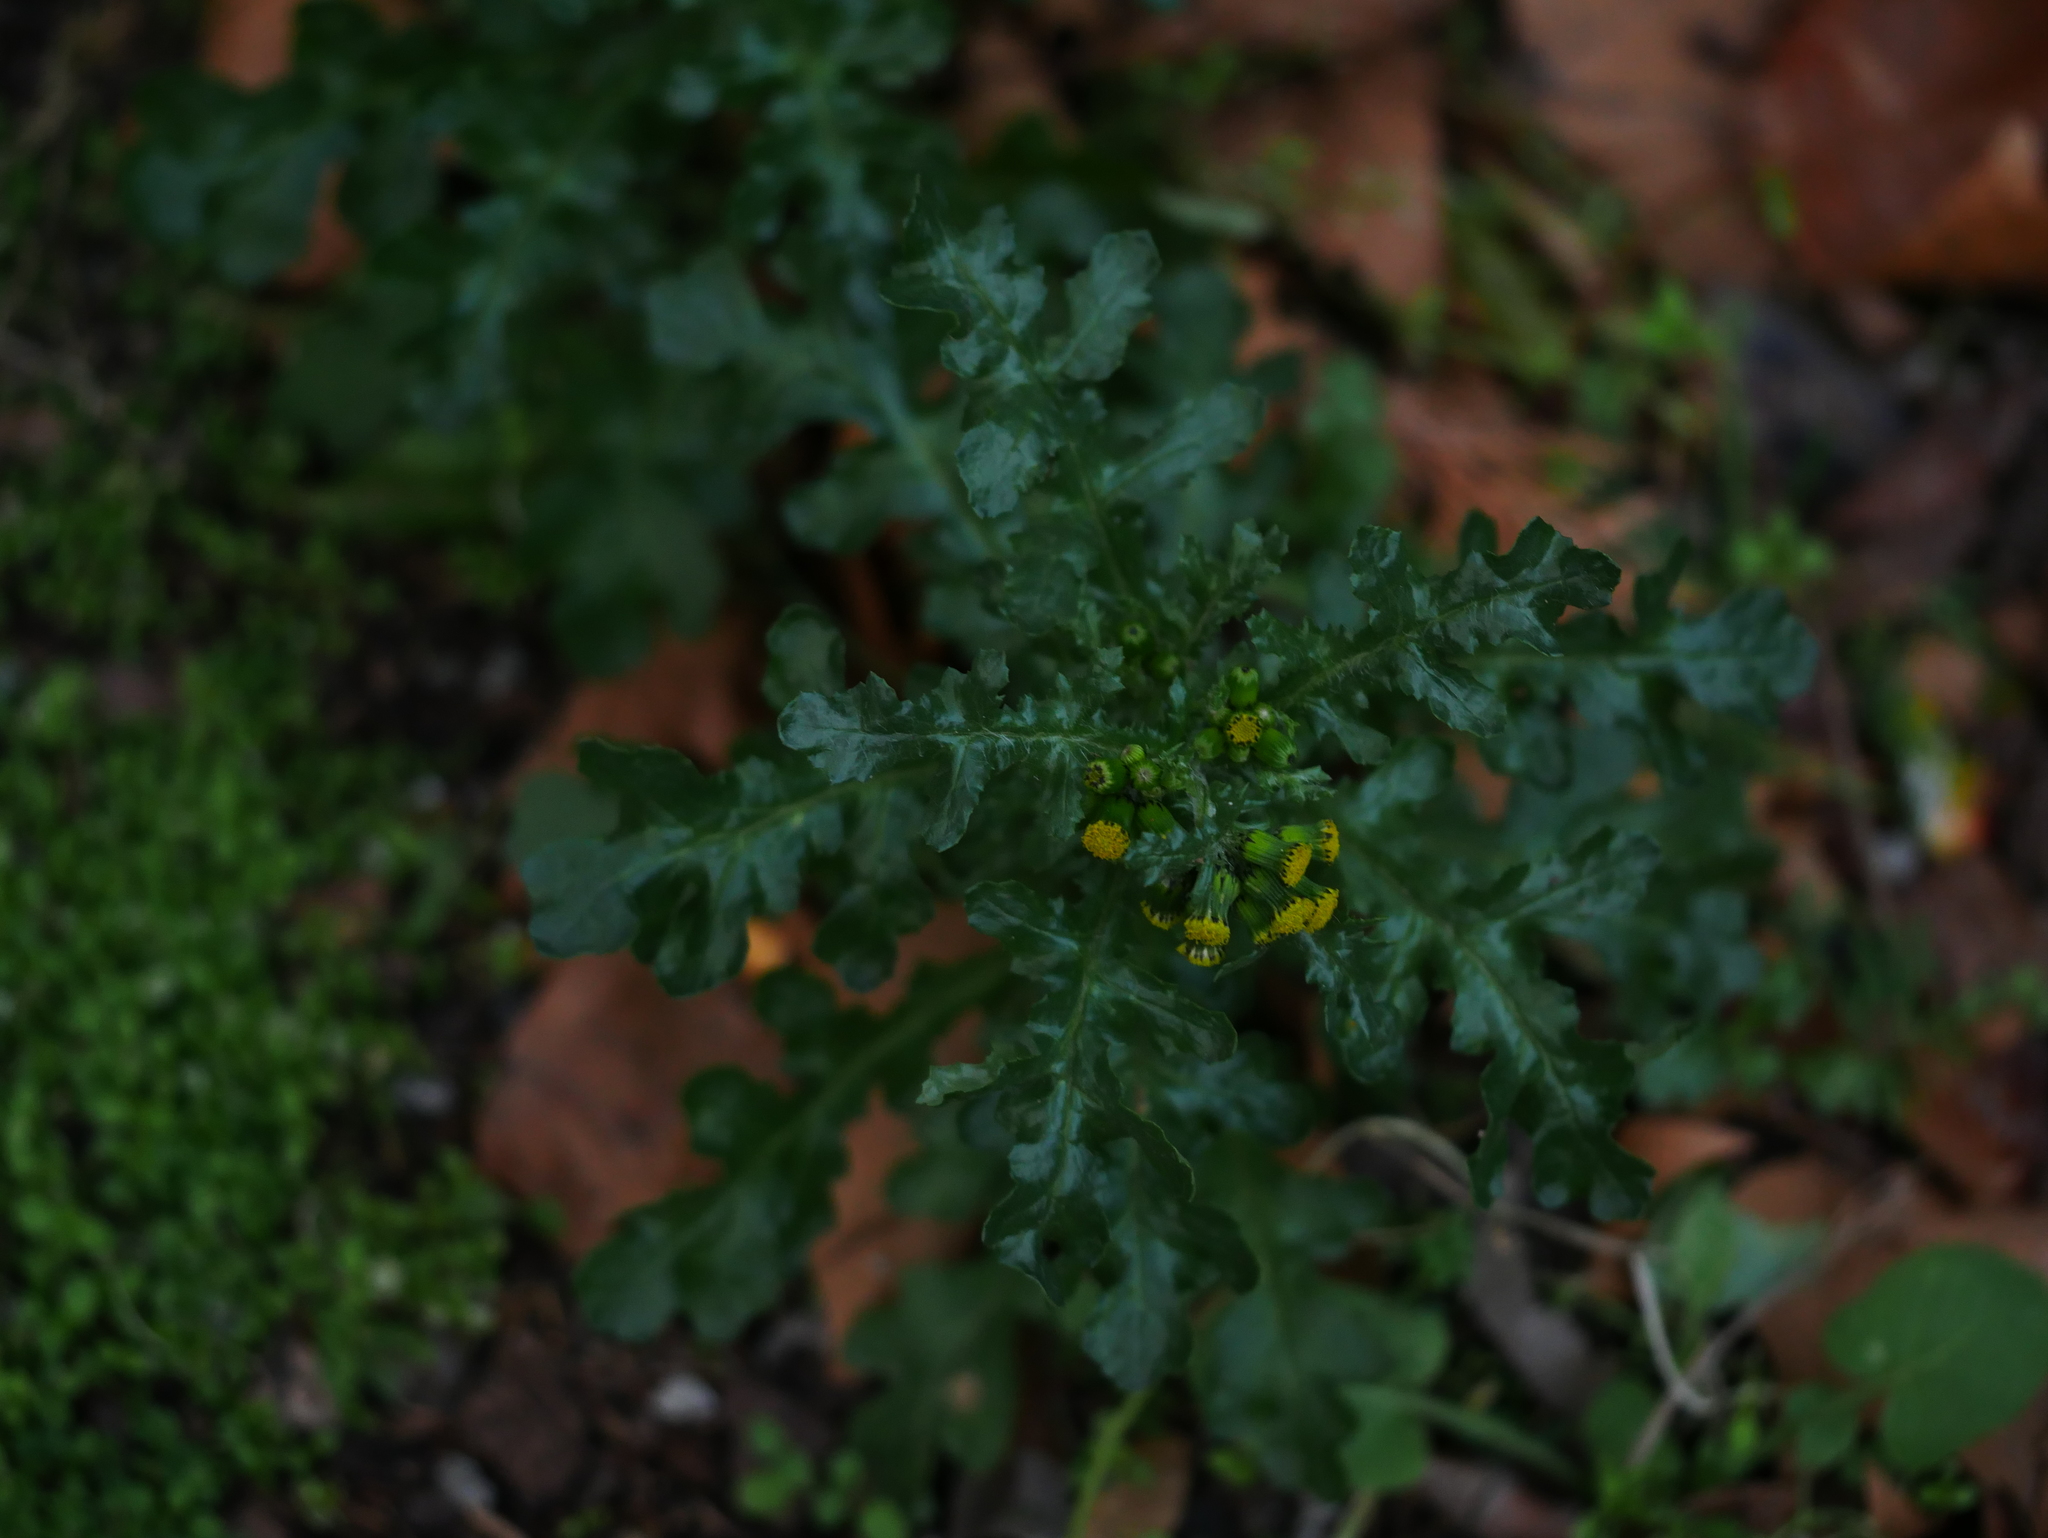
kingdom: Plantae
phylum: Tracheophyta
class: Magnoliopsida
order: Asterales
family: Asteraceae
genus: Senecio
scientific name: Senecio vulgaris
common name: Old-man-in-the-spring
